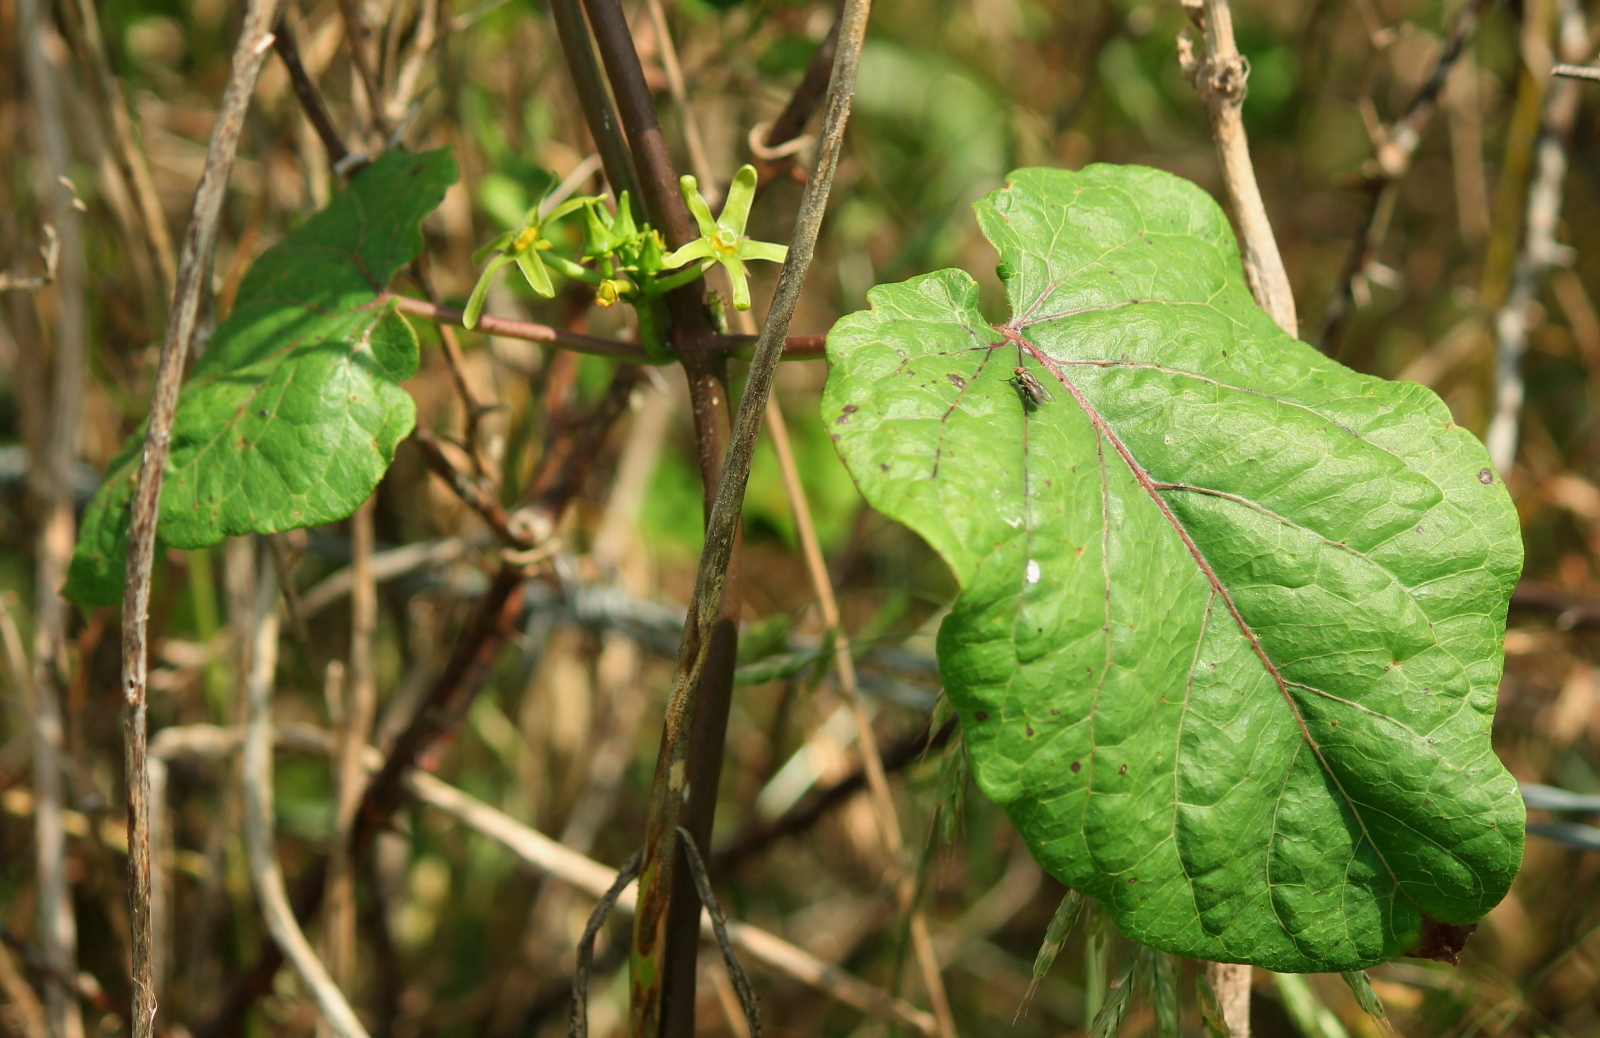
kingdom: Plantae
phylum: Tracheophyta
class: Magnoliopsida
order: Gentianales
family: Apocynaceae
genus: Gonolobus
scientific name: Gonolobus suberosus
